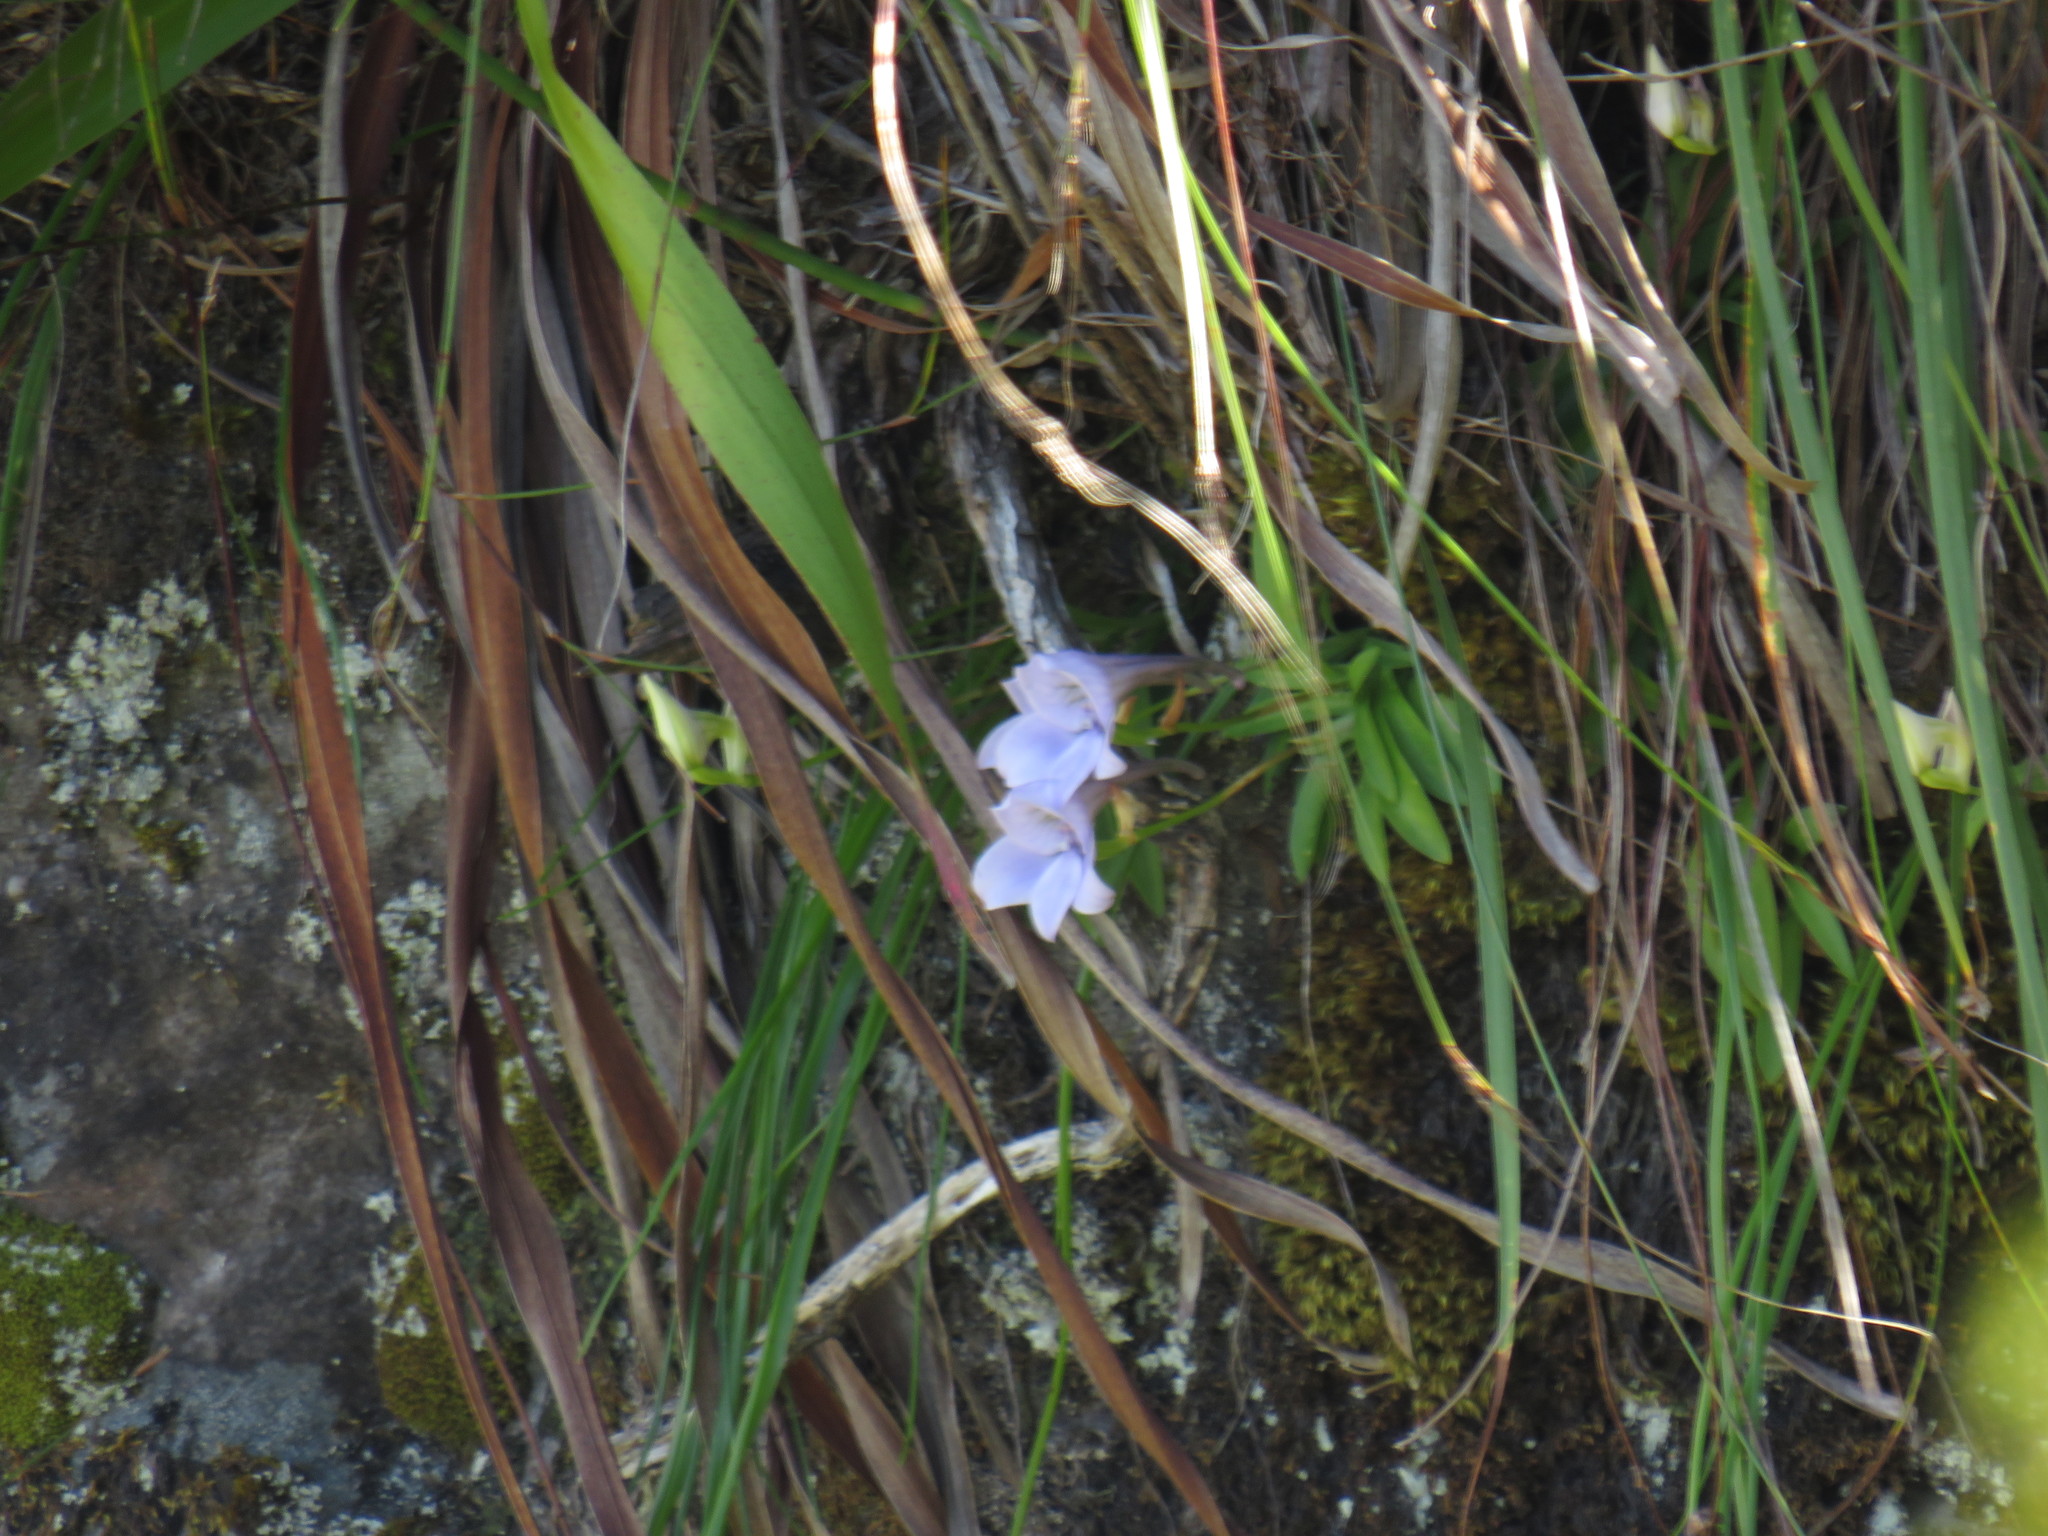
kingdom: Plantae
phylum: Tracheophyta
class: Liliopsida
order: Asparagales
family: Orchidaceae
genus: Disa
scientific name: Disa longicornu
